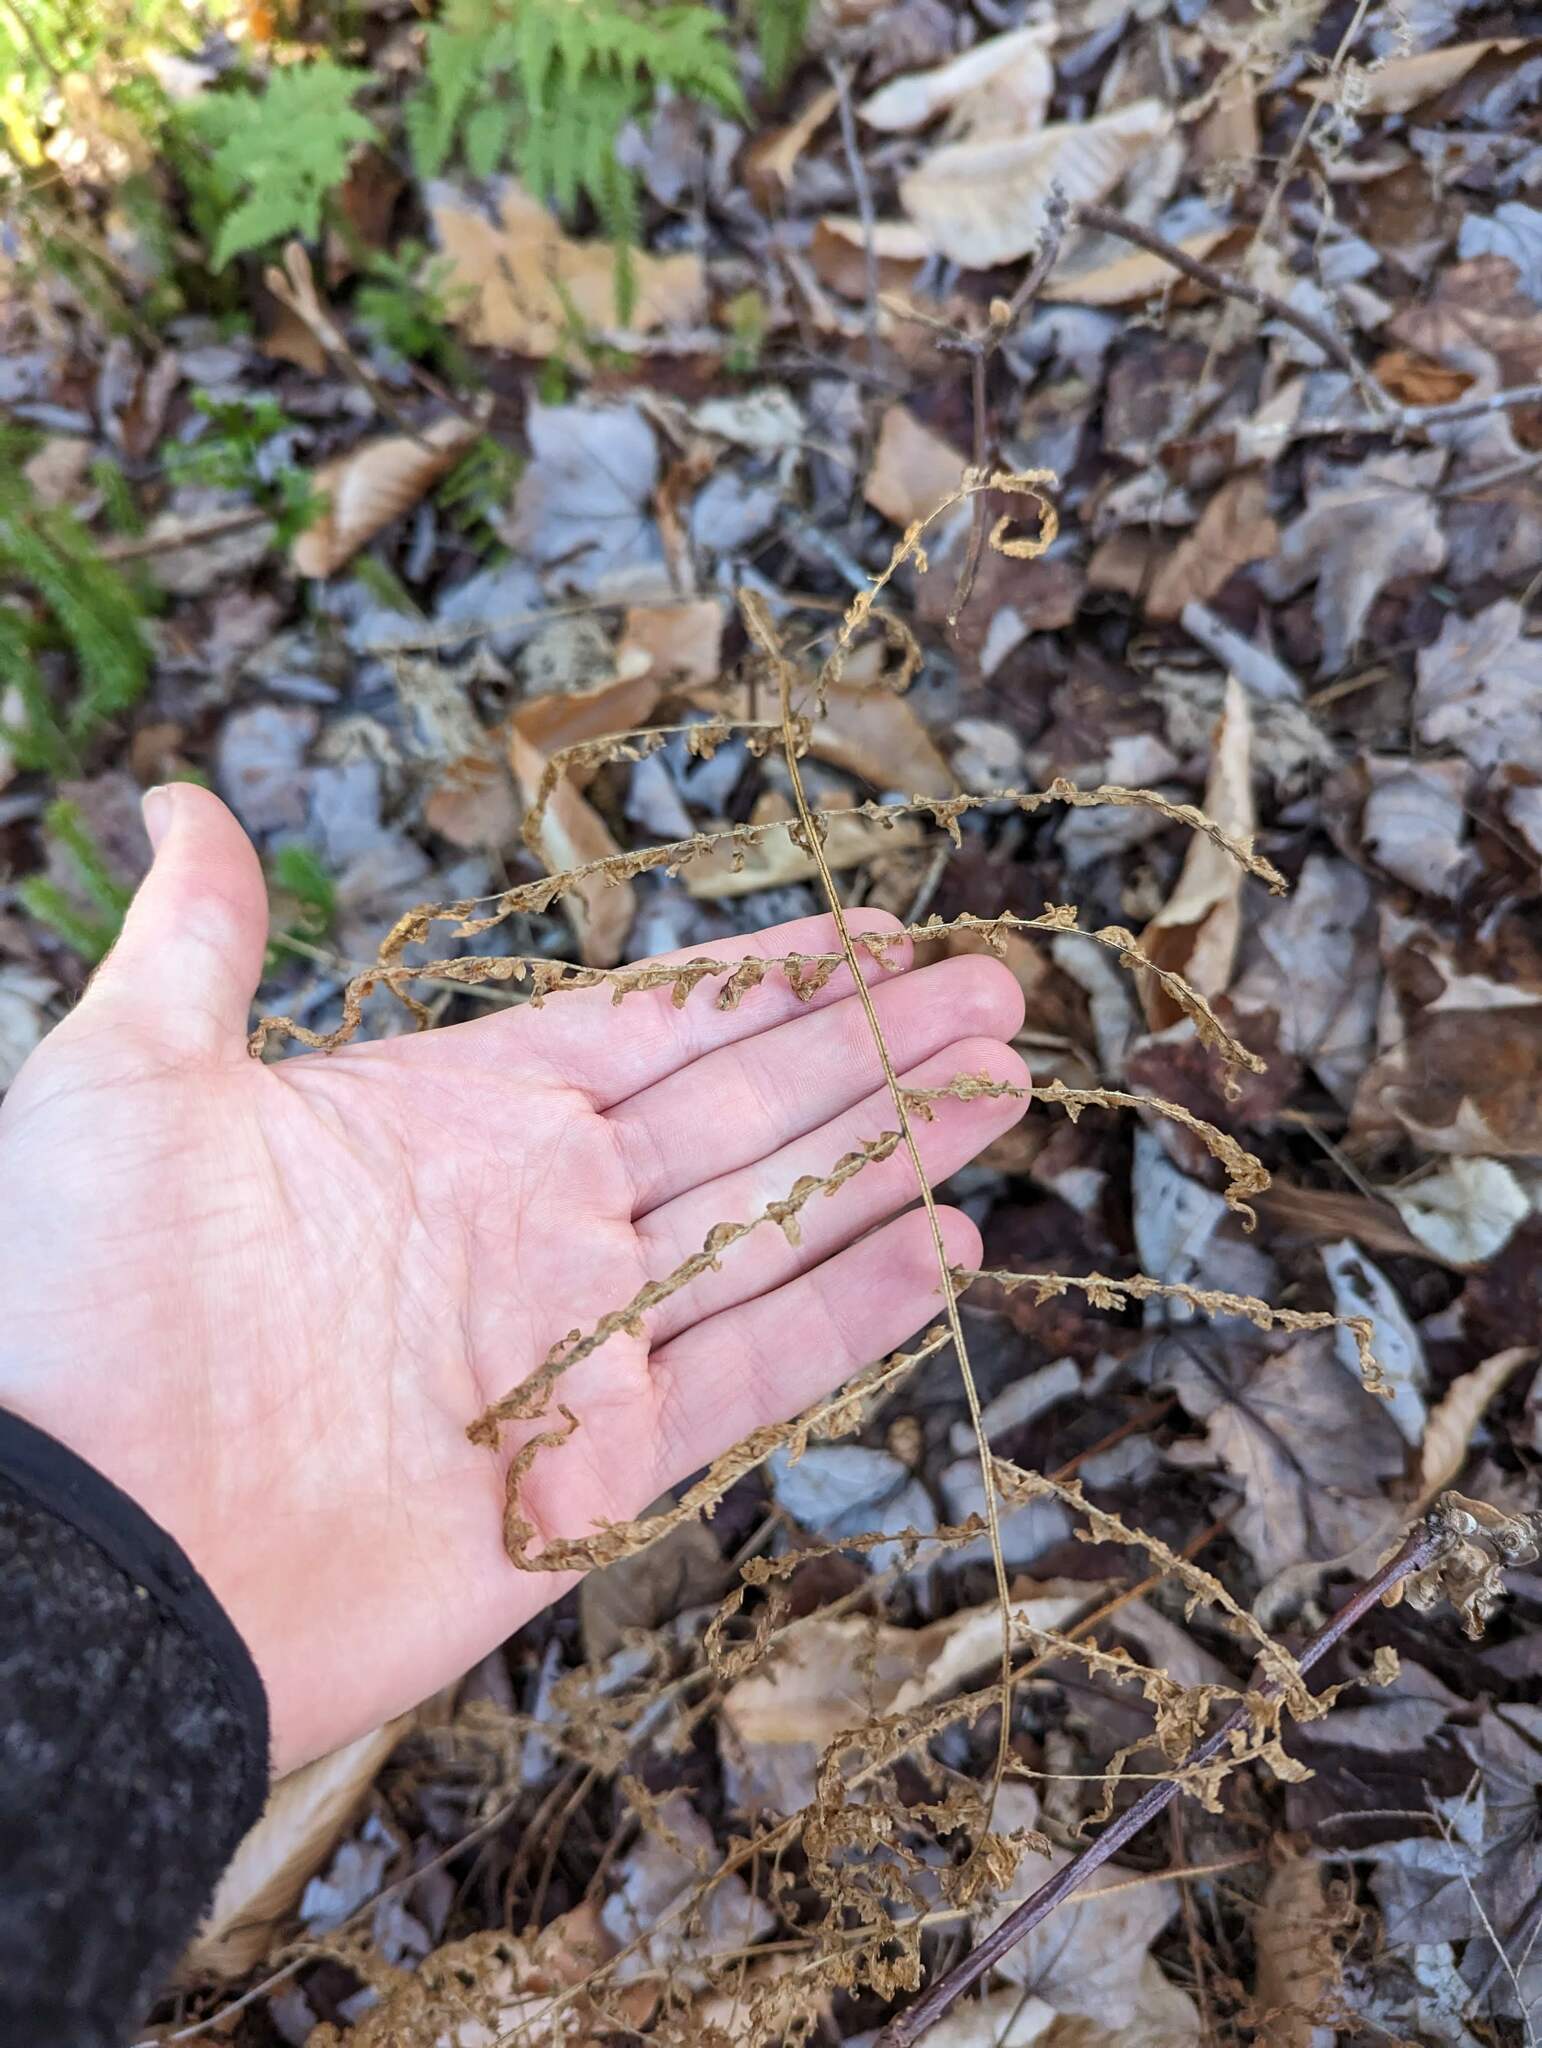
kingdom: Plantae
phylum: Tracheophyta
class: Polypodiopsida
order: Polypodiales
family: Dennstaedtiaceae
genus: Sitobolium
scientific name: Sitobolium punctilobum
